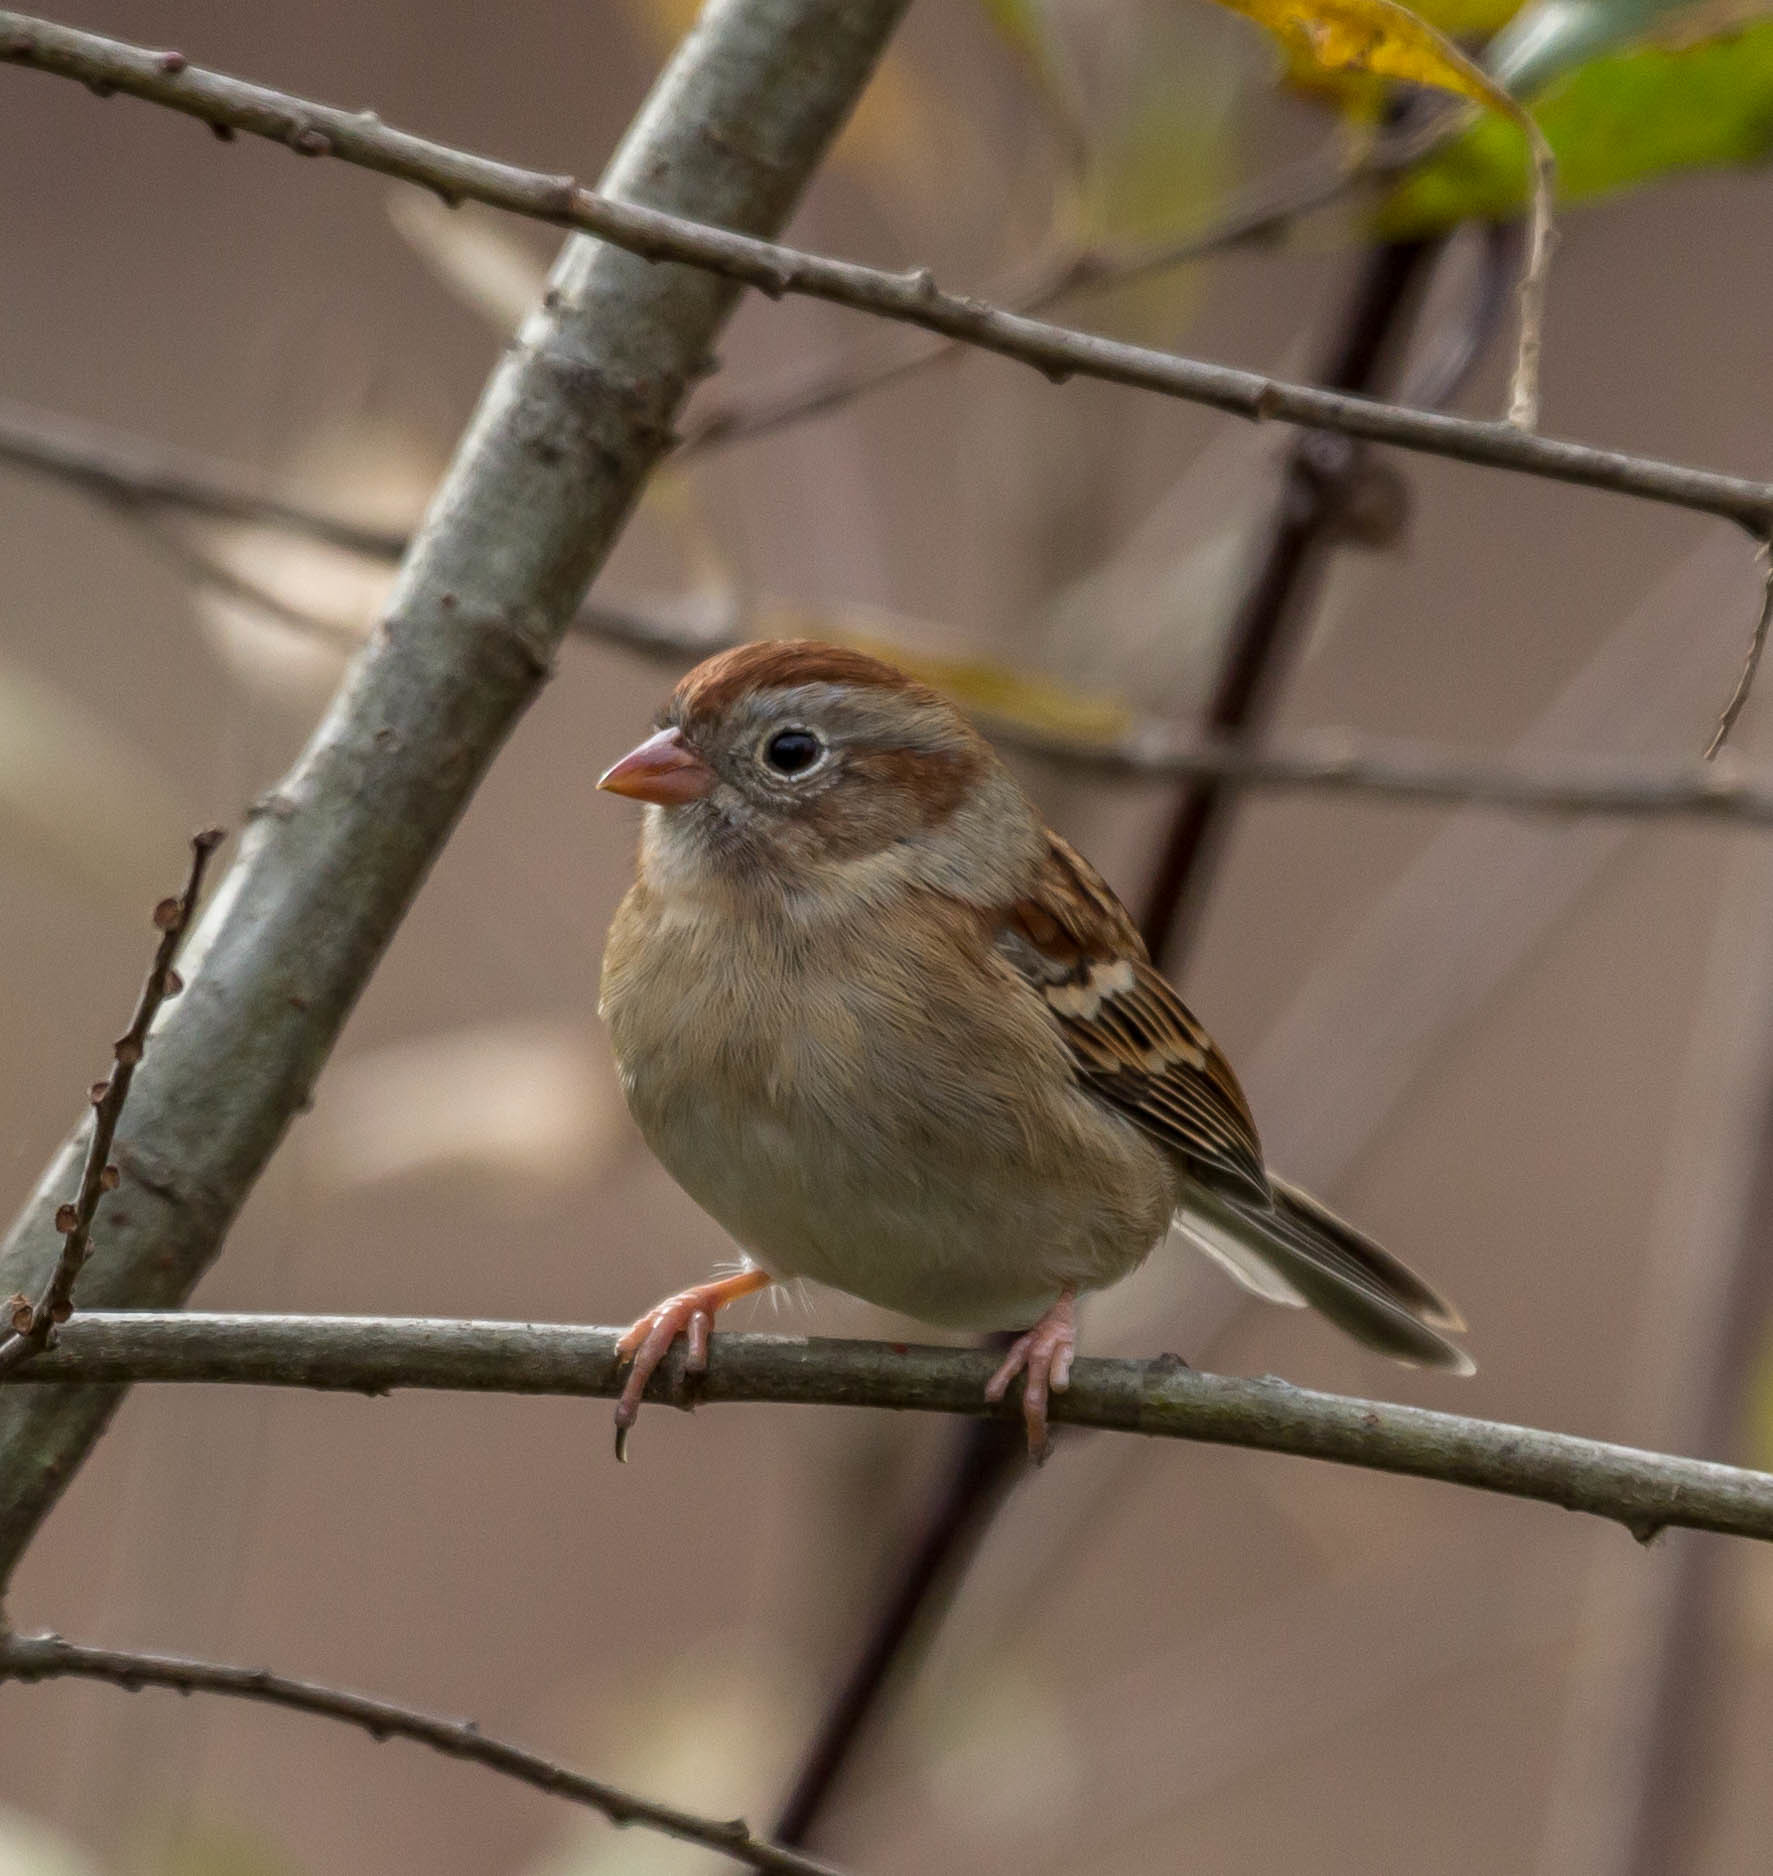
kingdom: Animalia
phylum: Chordata
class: Aves
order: Passeriformes
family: Passerellidae
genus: Spizella
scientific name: Spizella pusilla
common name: Field sparrow
